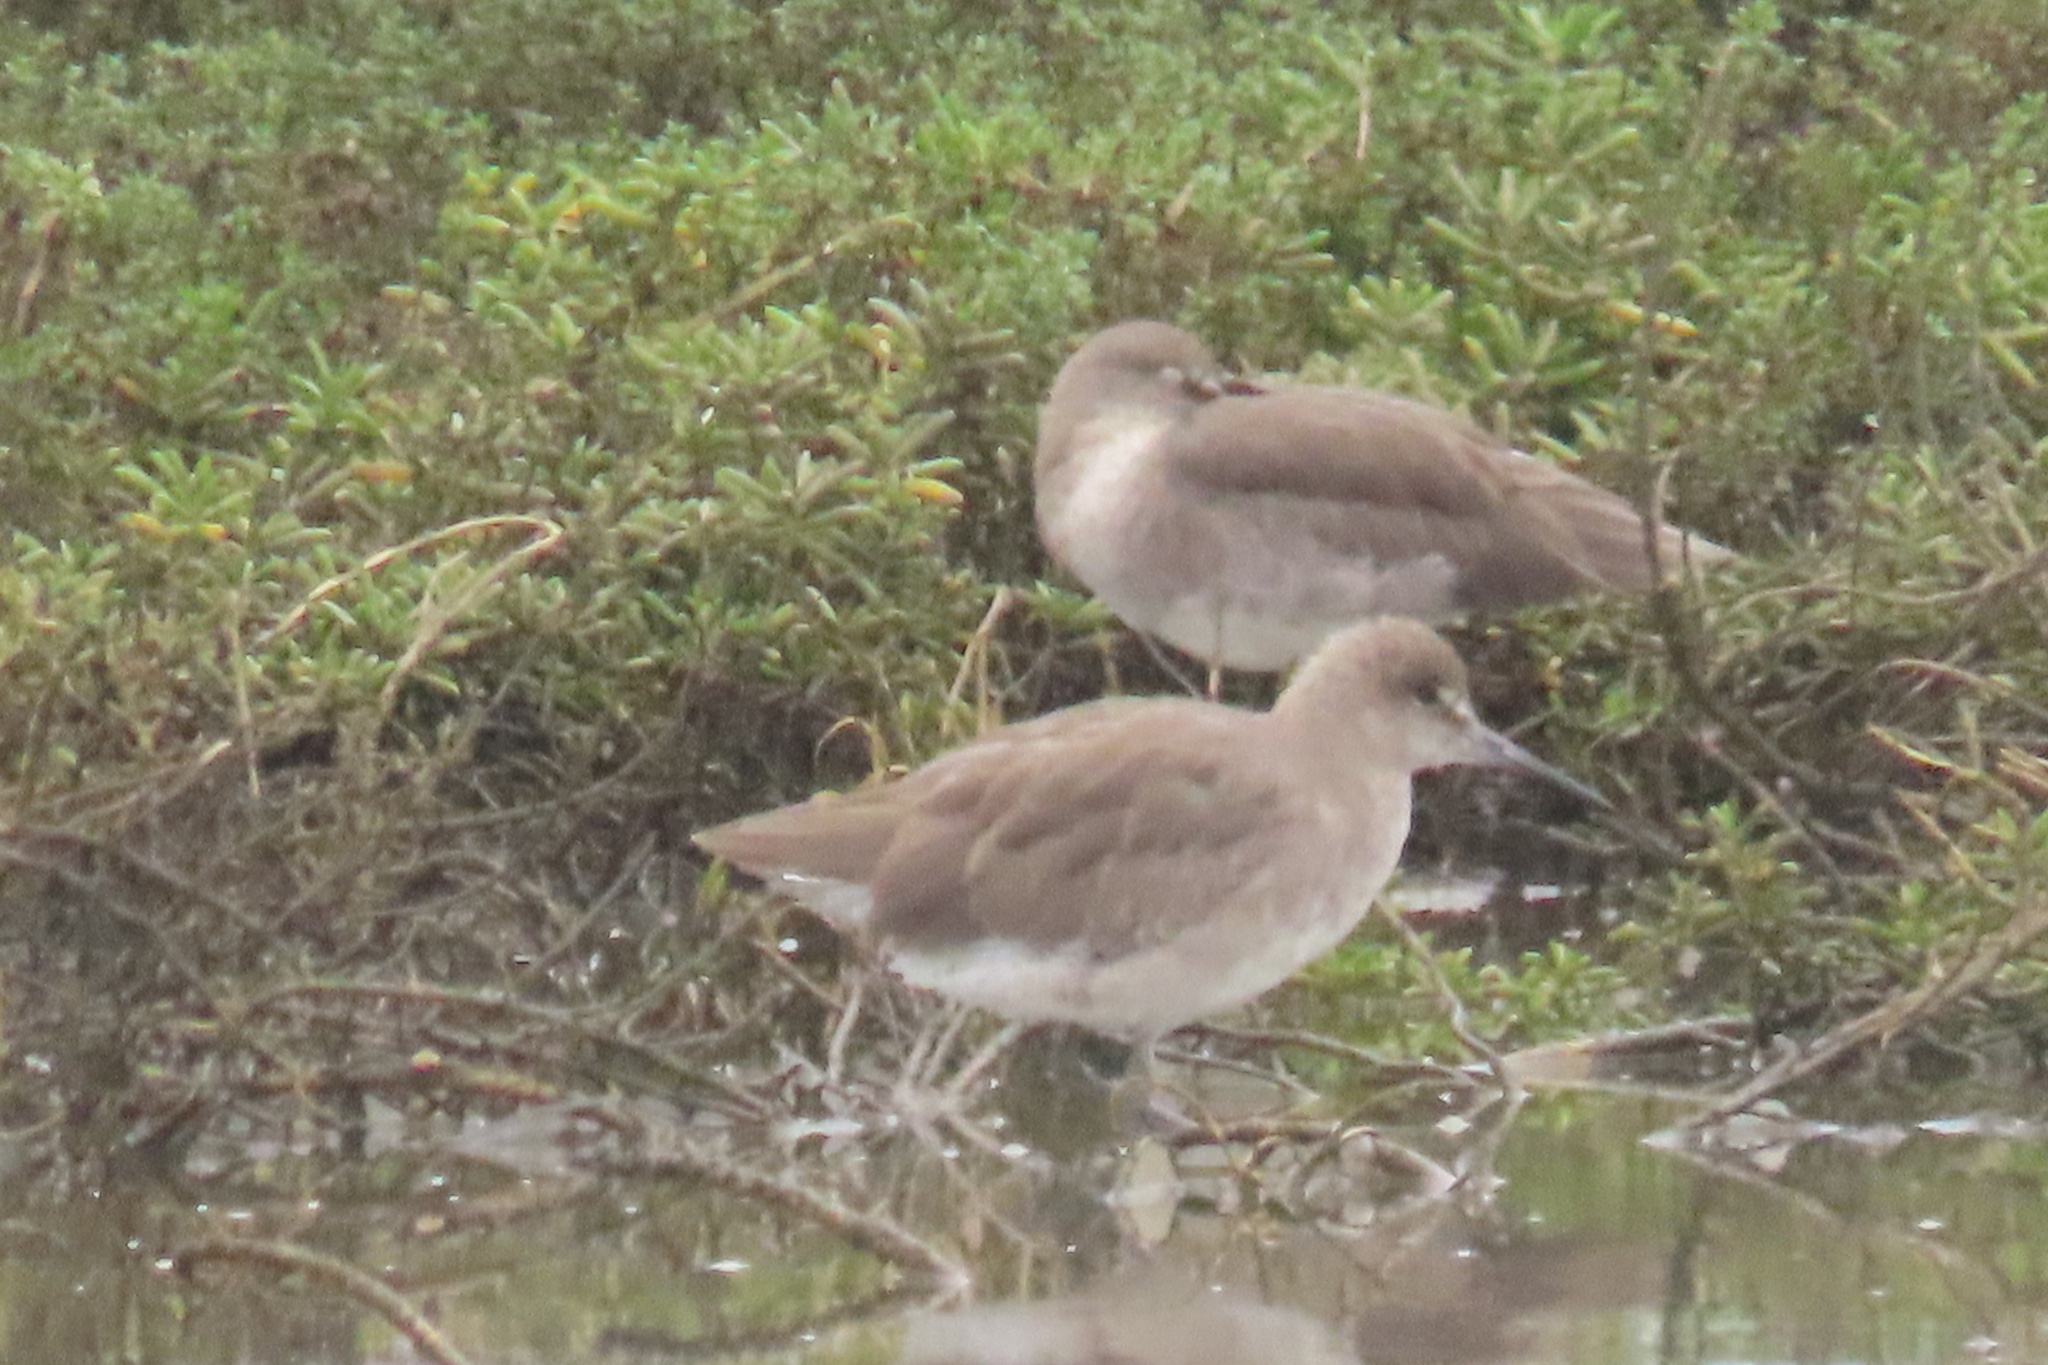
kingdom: Animalia
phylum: Chordata
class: Aves
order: Charadriiformes
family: Scolopacidae
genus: Tringa
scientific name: Tringa semipalmata
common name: Willet
